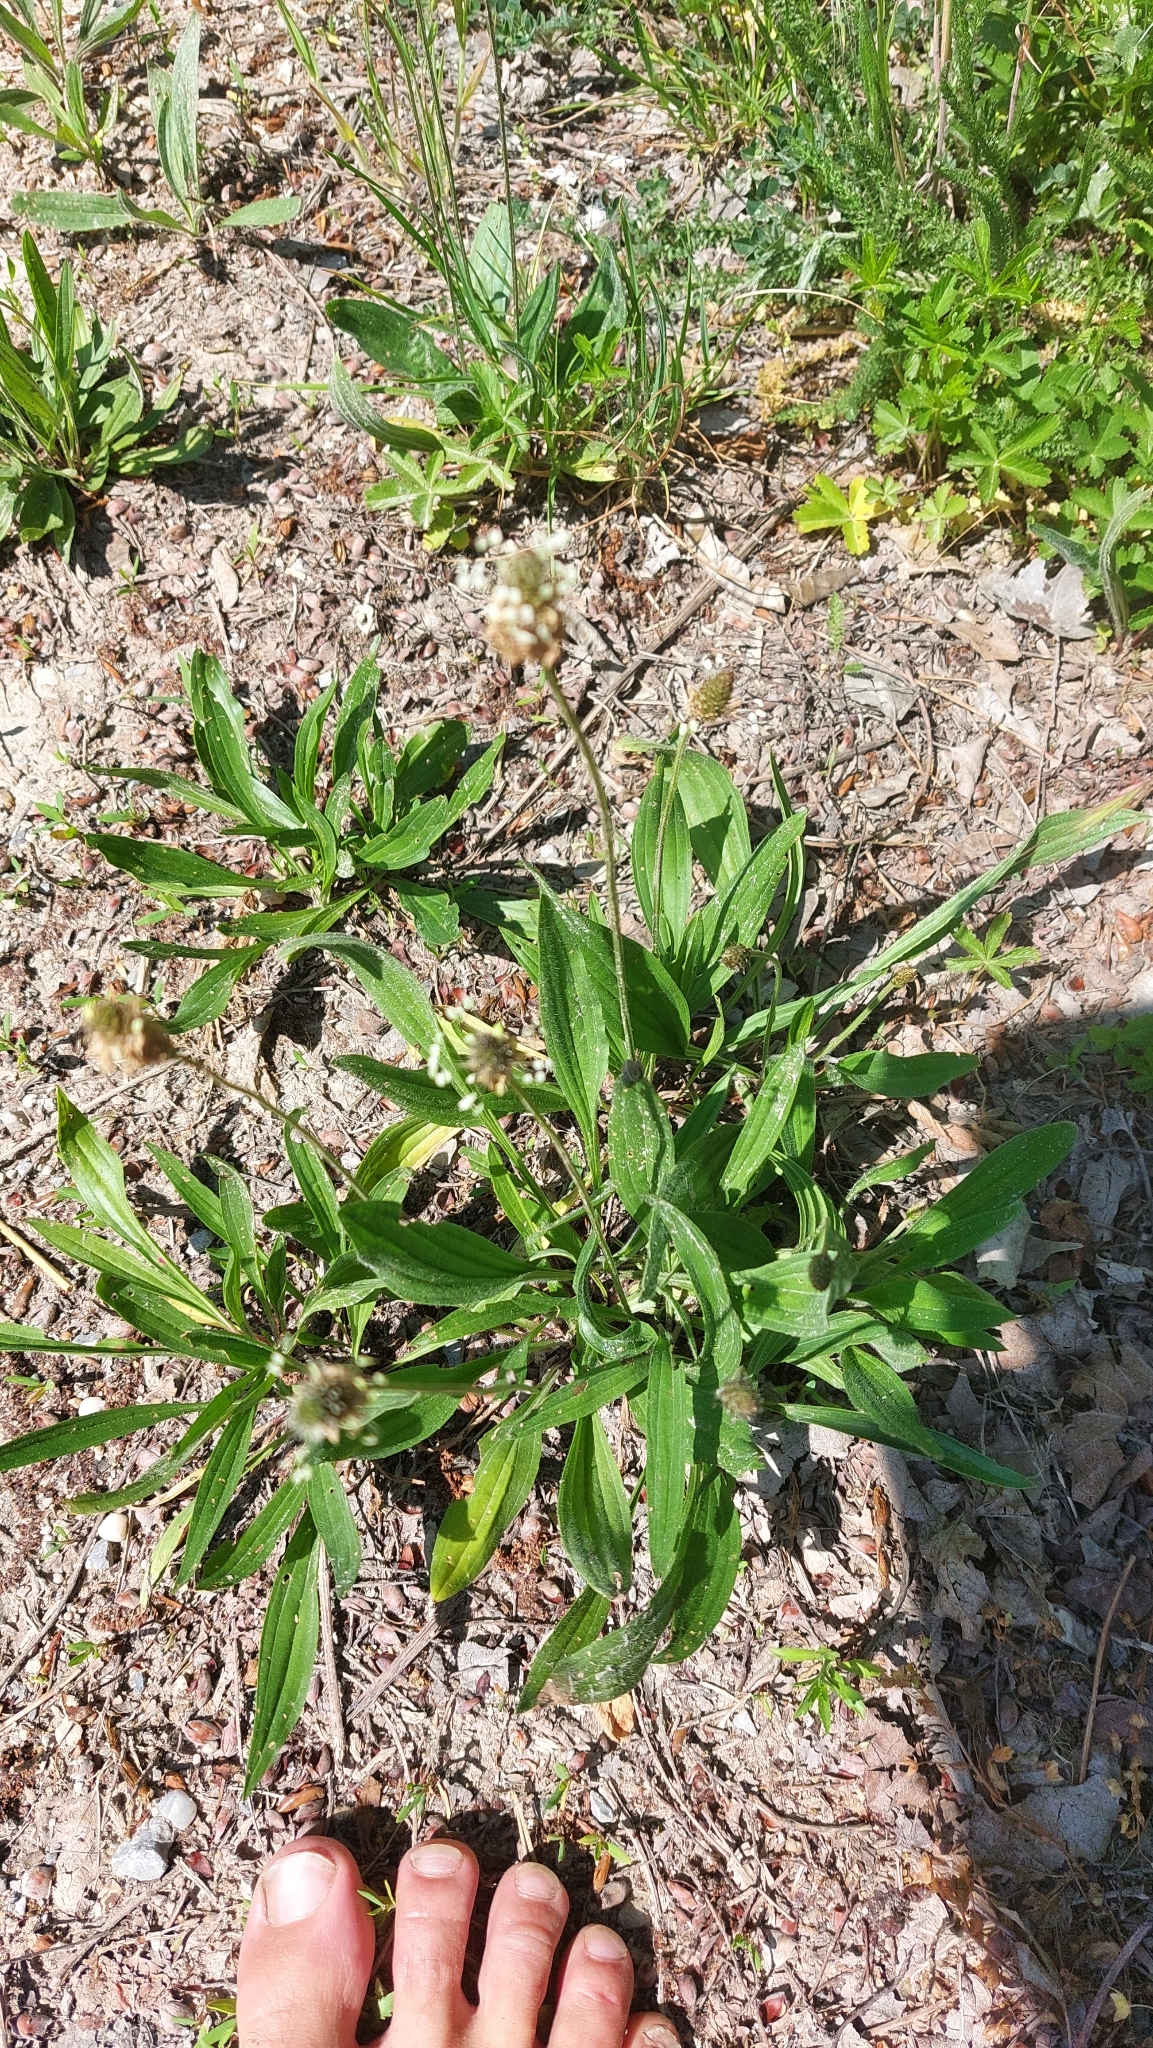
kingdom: Plantae
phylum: Tracheophyta
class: Magnoliopsida
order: Lamiales
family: Plantaginaceae
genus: Plantago
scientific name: Plantago lanceolata
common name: Ribwort plantain
